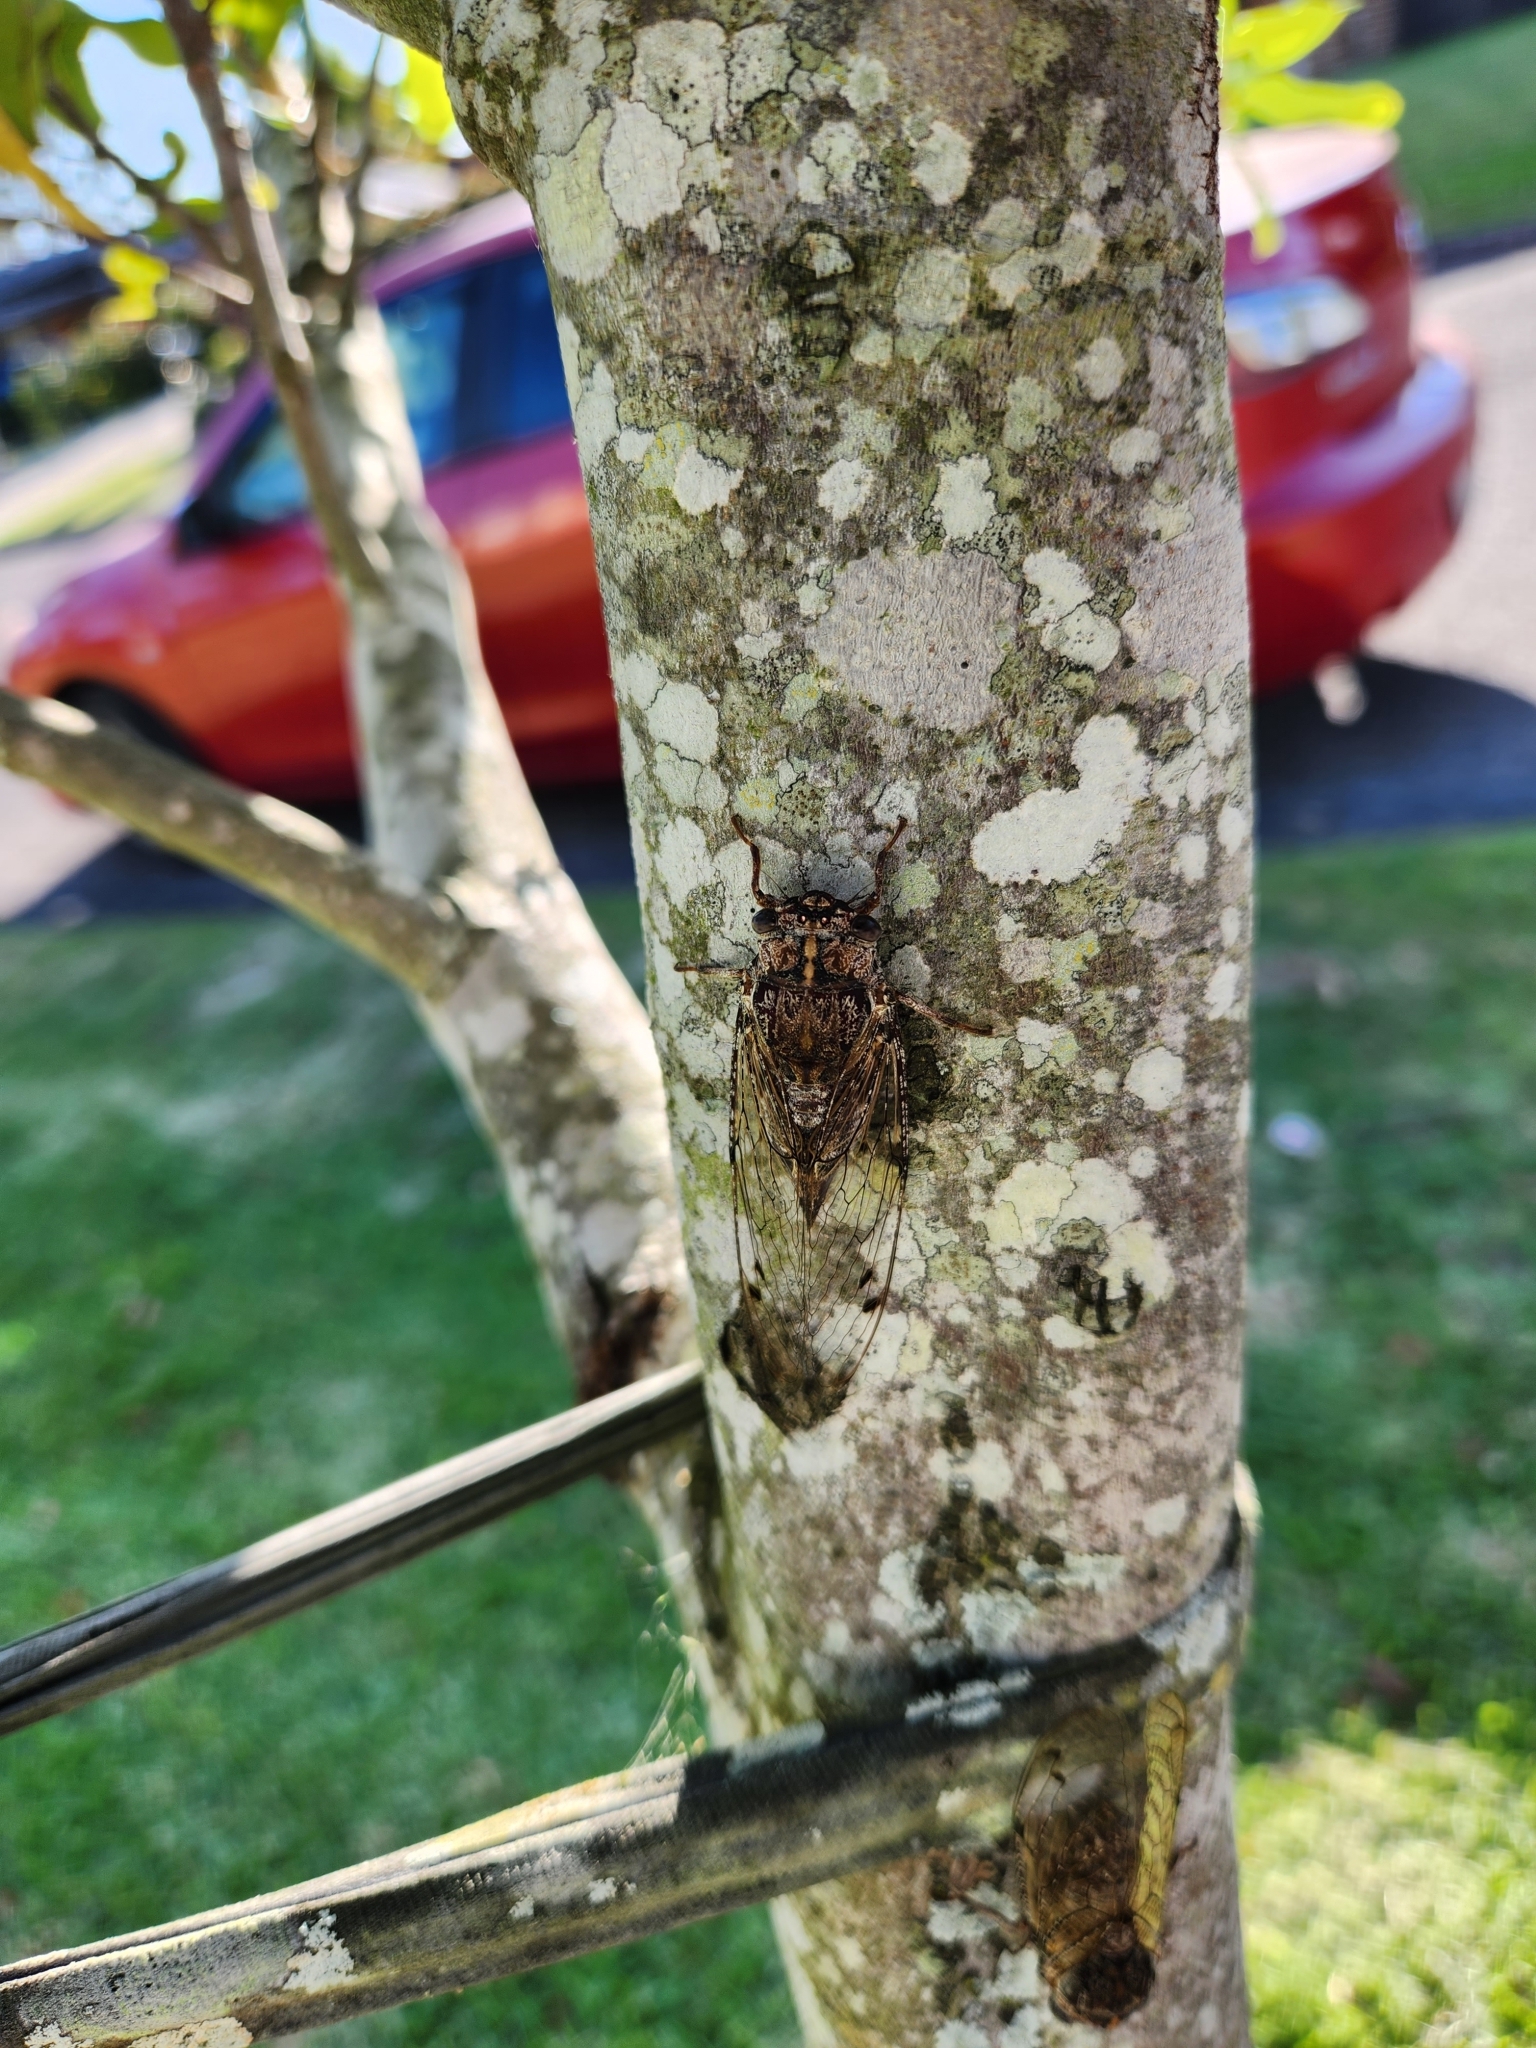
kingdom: Animalia
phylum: Arthropoda
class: Insecta
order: Hemiptera
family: Cicadidae
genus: Aleeta
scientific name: Aleeta curvicosta
